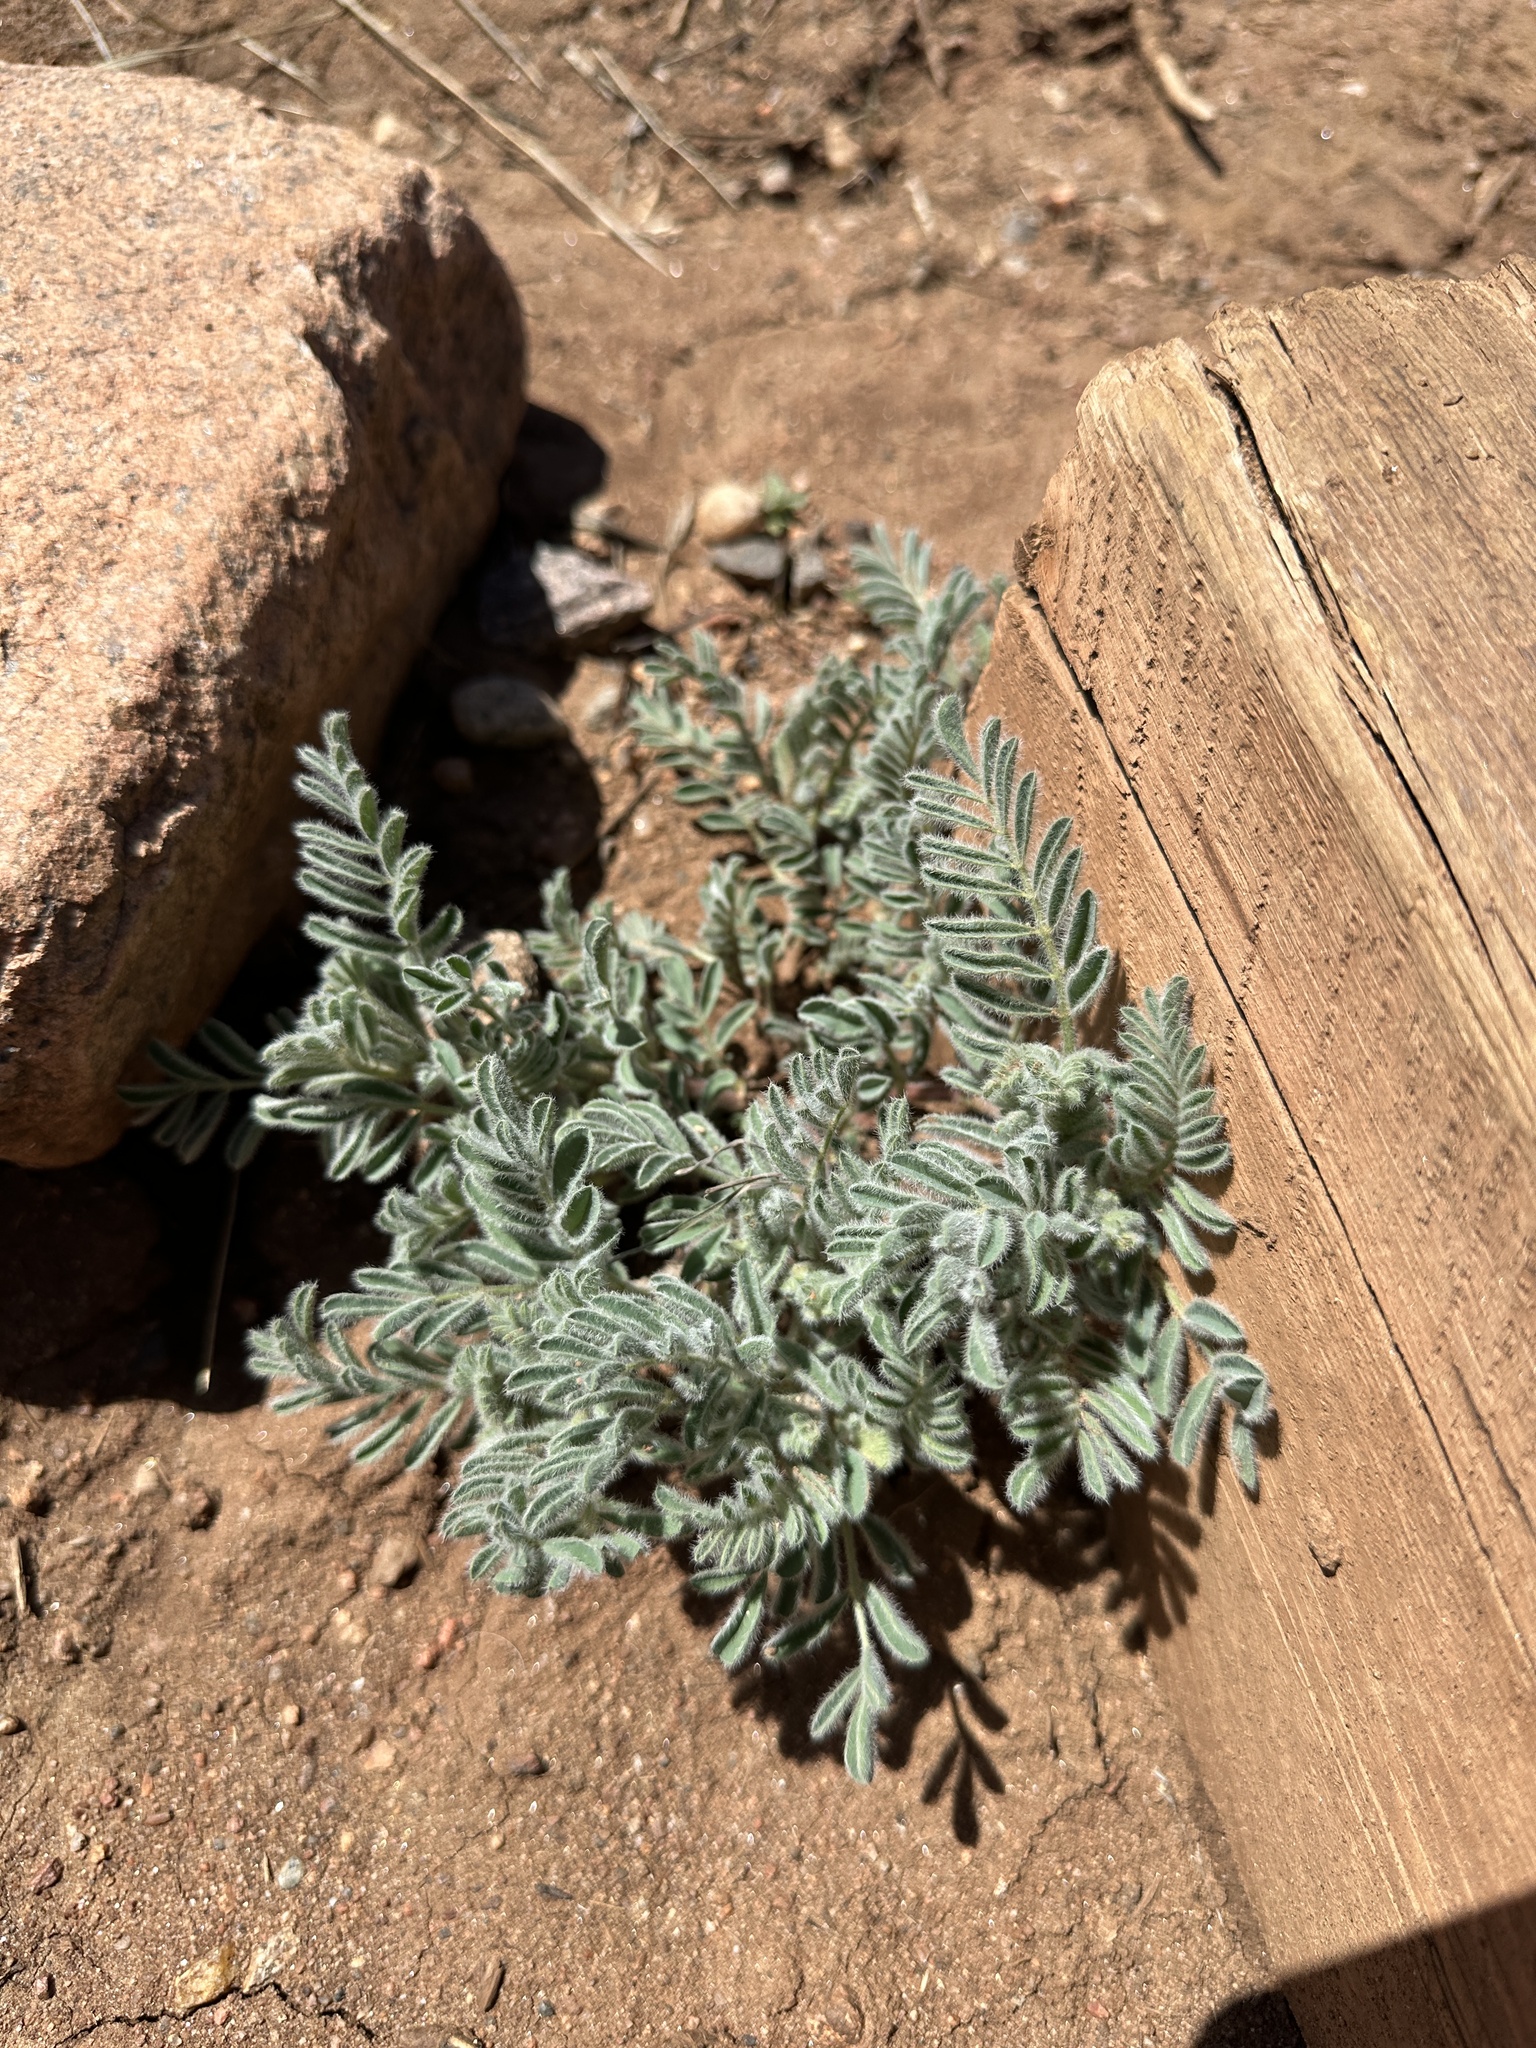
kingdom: Plantae
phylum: Tracheophyta
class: Magnoliopsida
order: Fabales
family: Fabaceae
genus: Astragalus
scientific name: Astragalus drummondii
